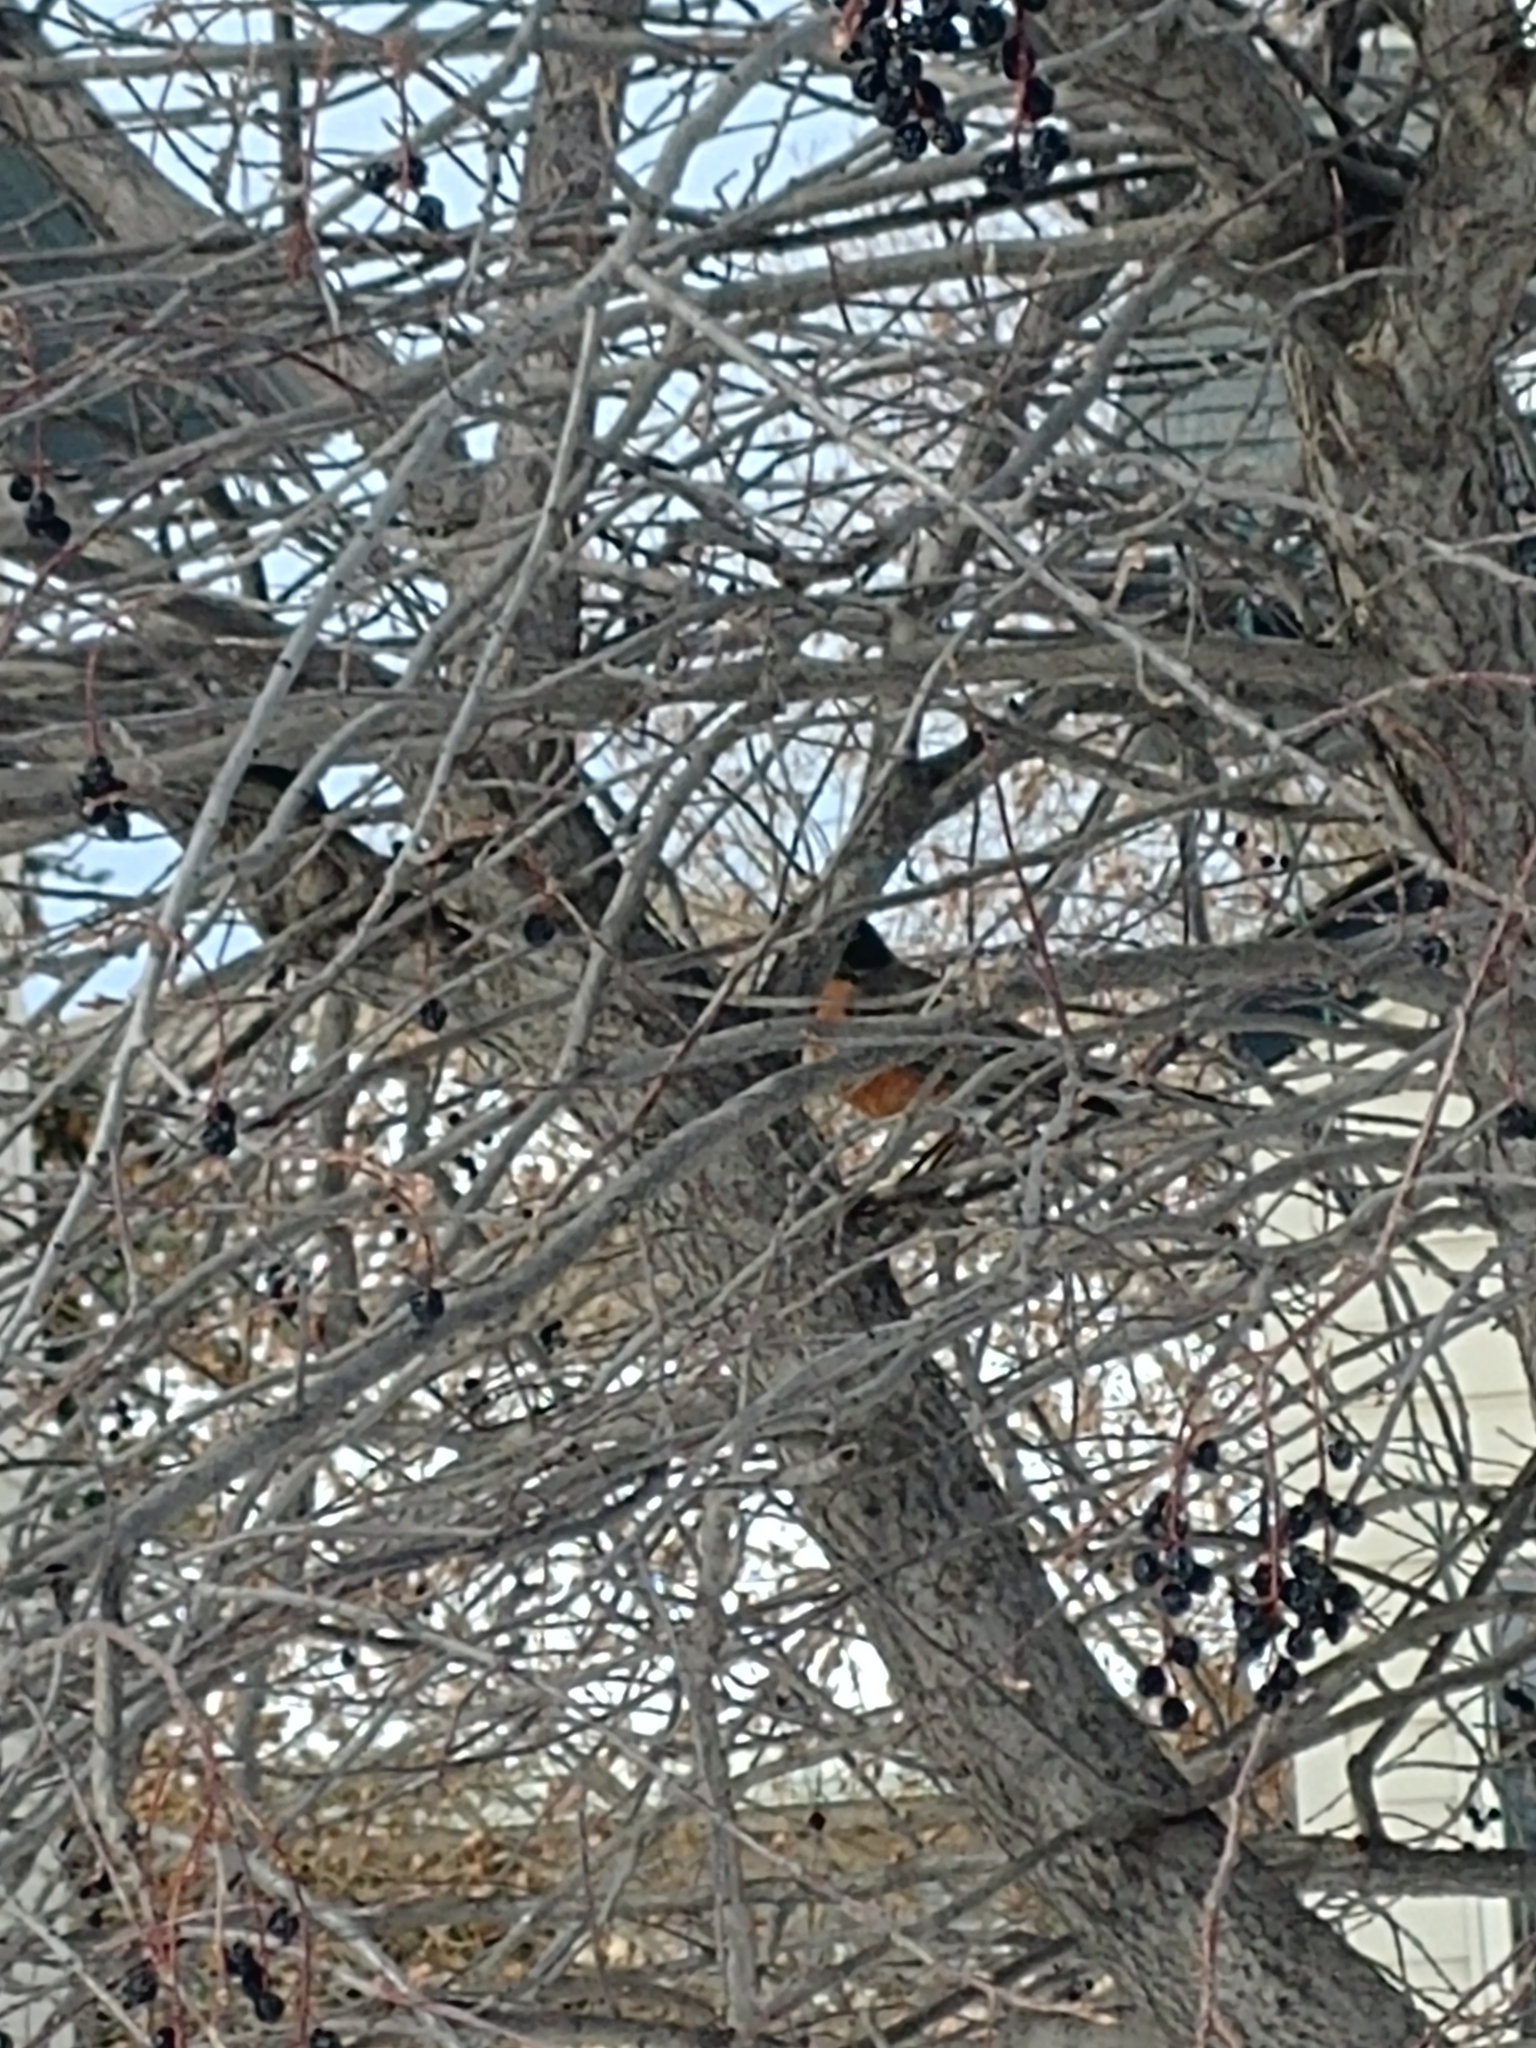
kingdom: Animalia
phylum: Chordata
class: Aves
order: Passeriformes
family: Turdidae
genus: Turdus
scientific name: Turdus migratorius
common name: American robin
